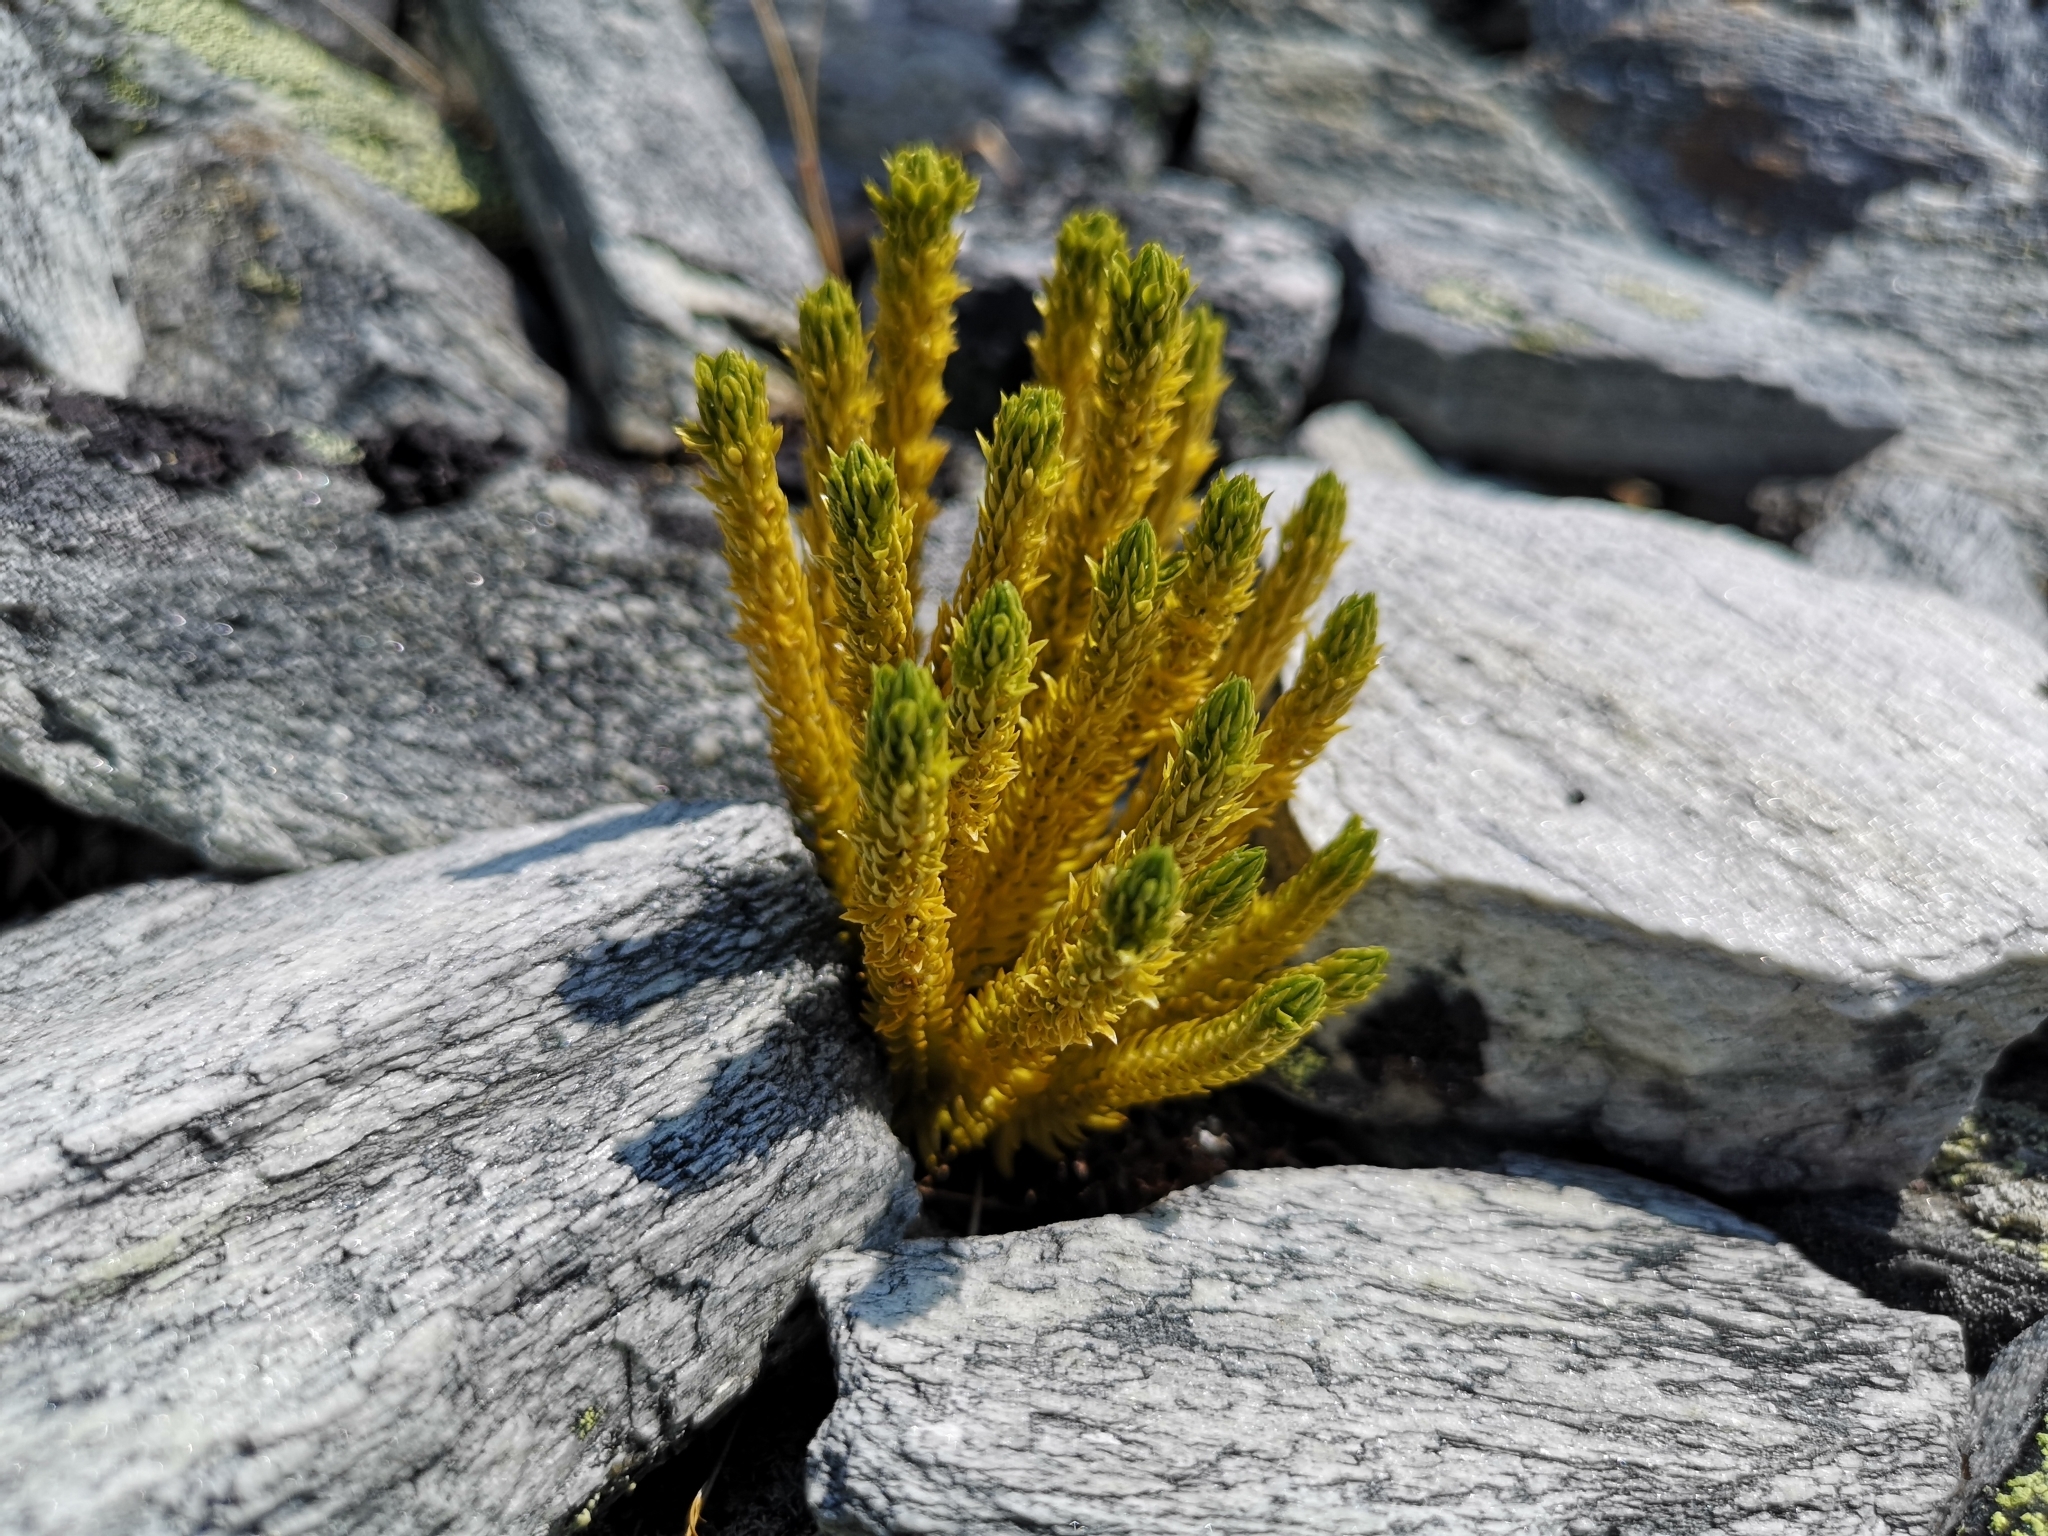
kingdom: Plantae
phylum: Tracheophyta
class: Lycopodiopsida
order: Lycopodiales
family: Lycopodiaceae
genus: Huperzia
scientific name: Huperzia selago
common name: Northern firmoss
